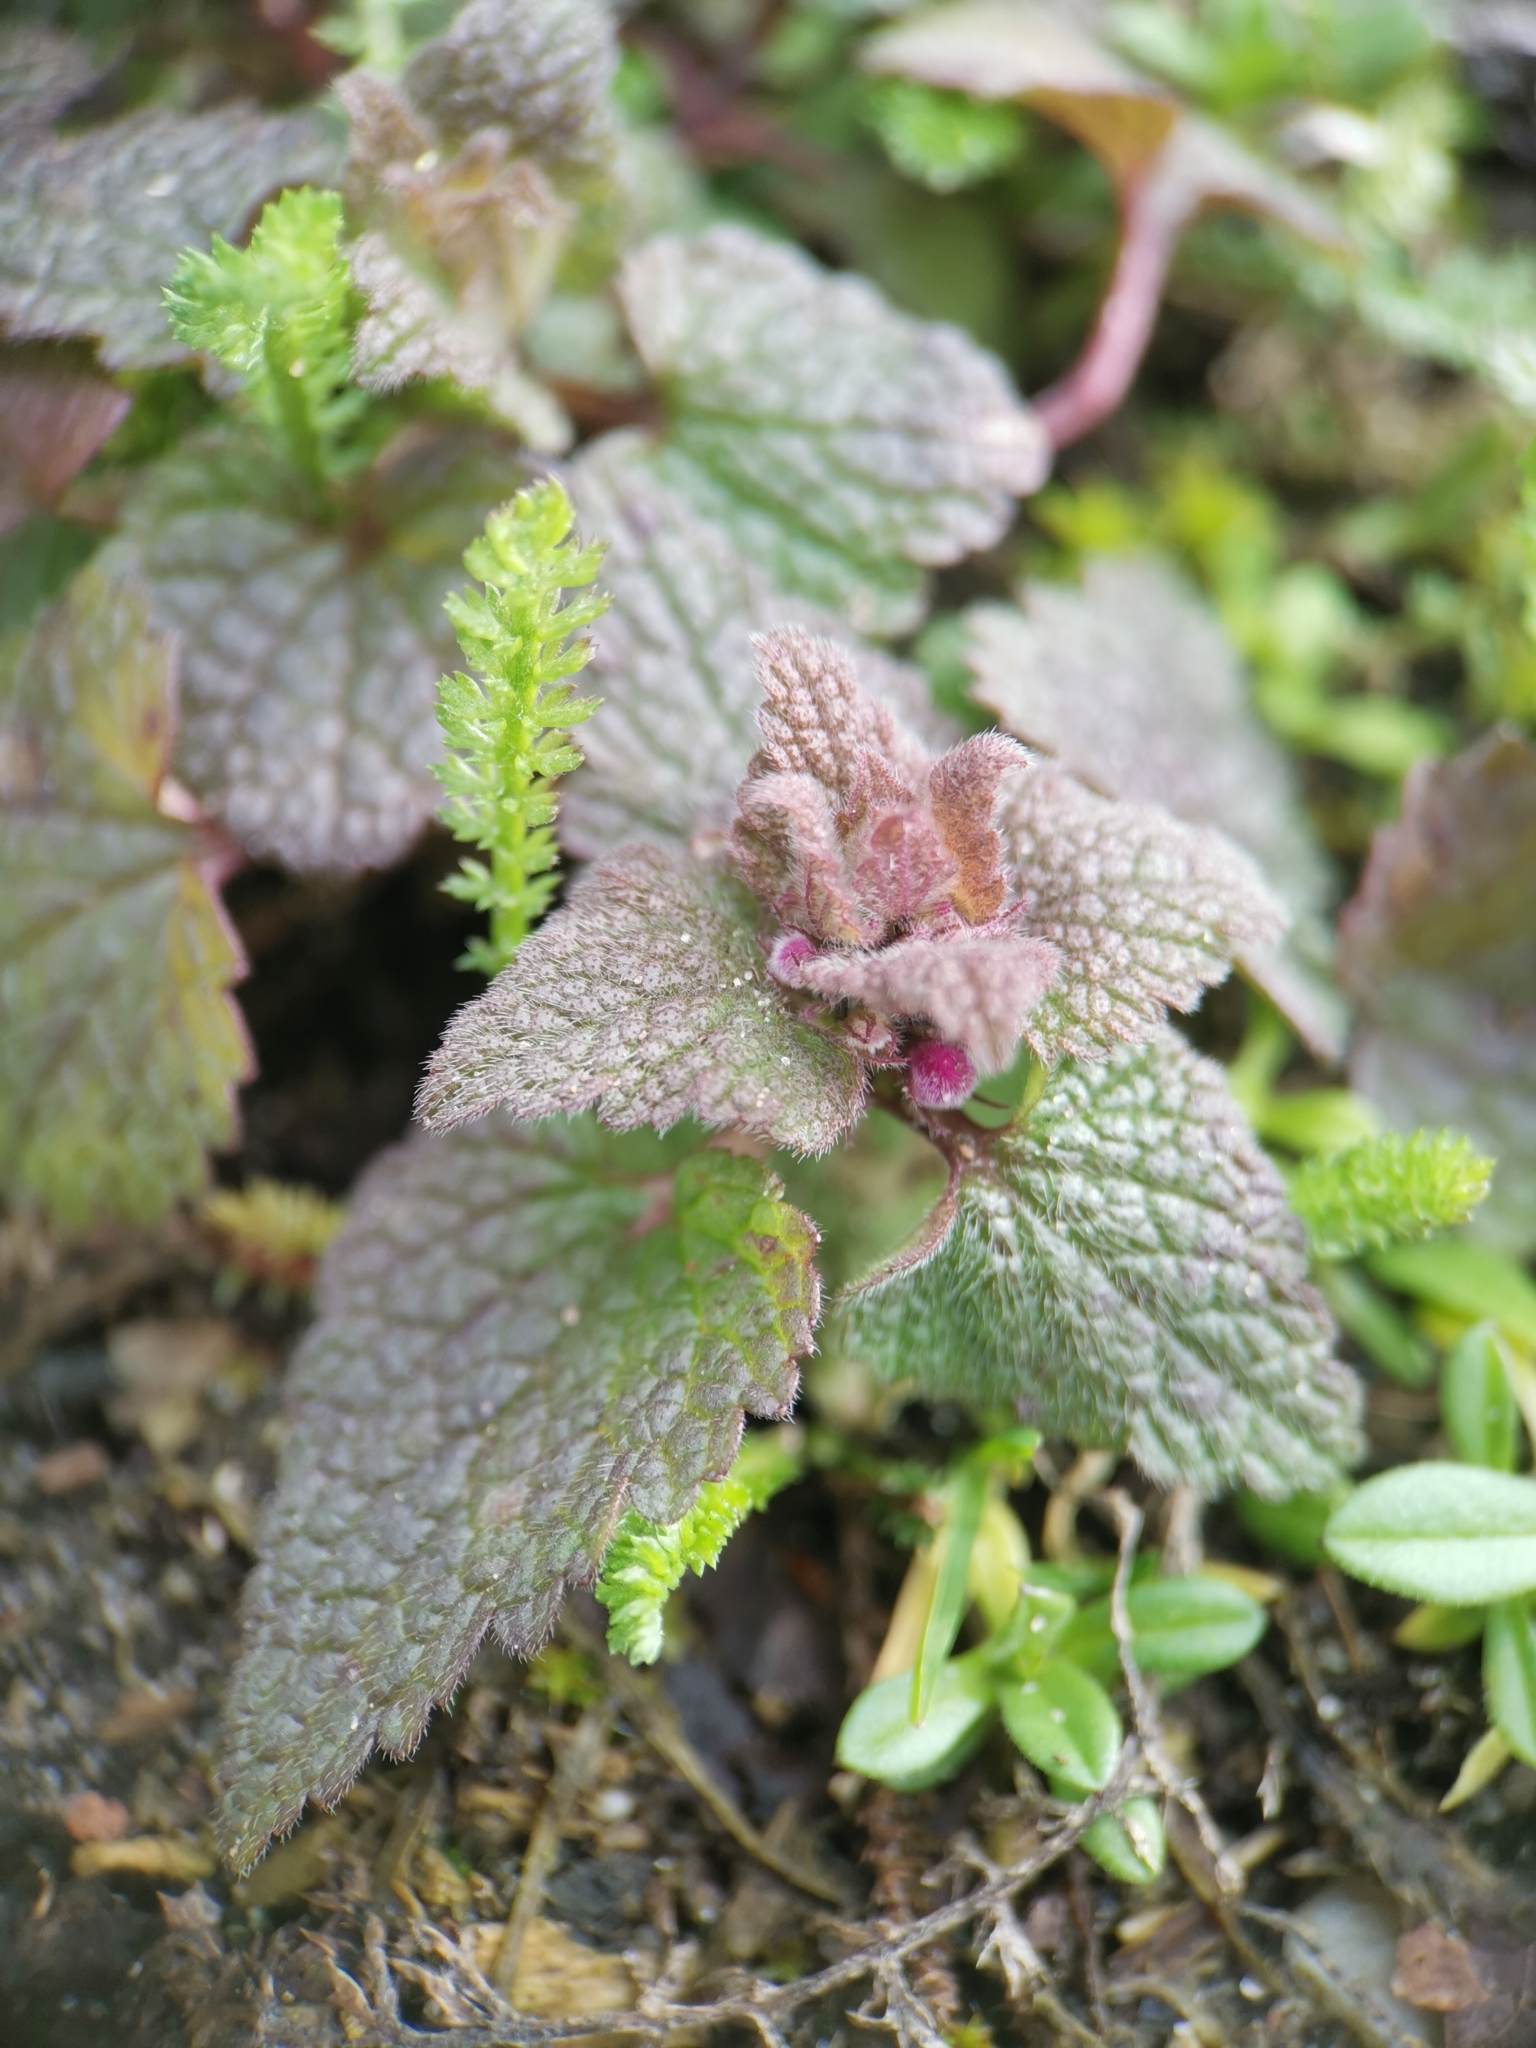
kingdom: Plantae
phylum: Tracheophyta
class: Magnoliopsida
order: Lamiales
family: Lamiaceae
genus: Lamium
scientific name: Lamium purpureum
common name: Red dead-nettle
